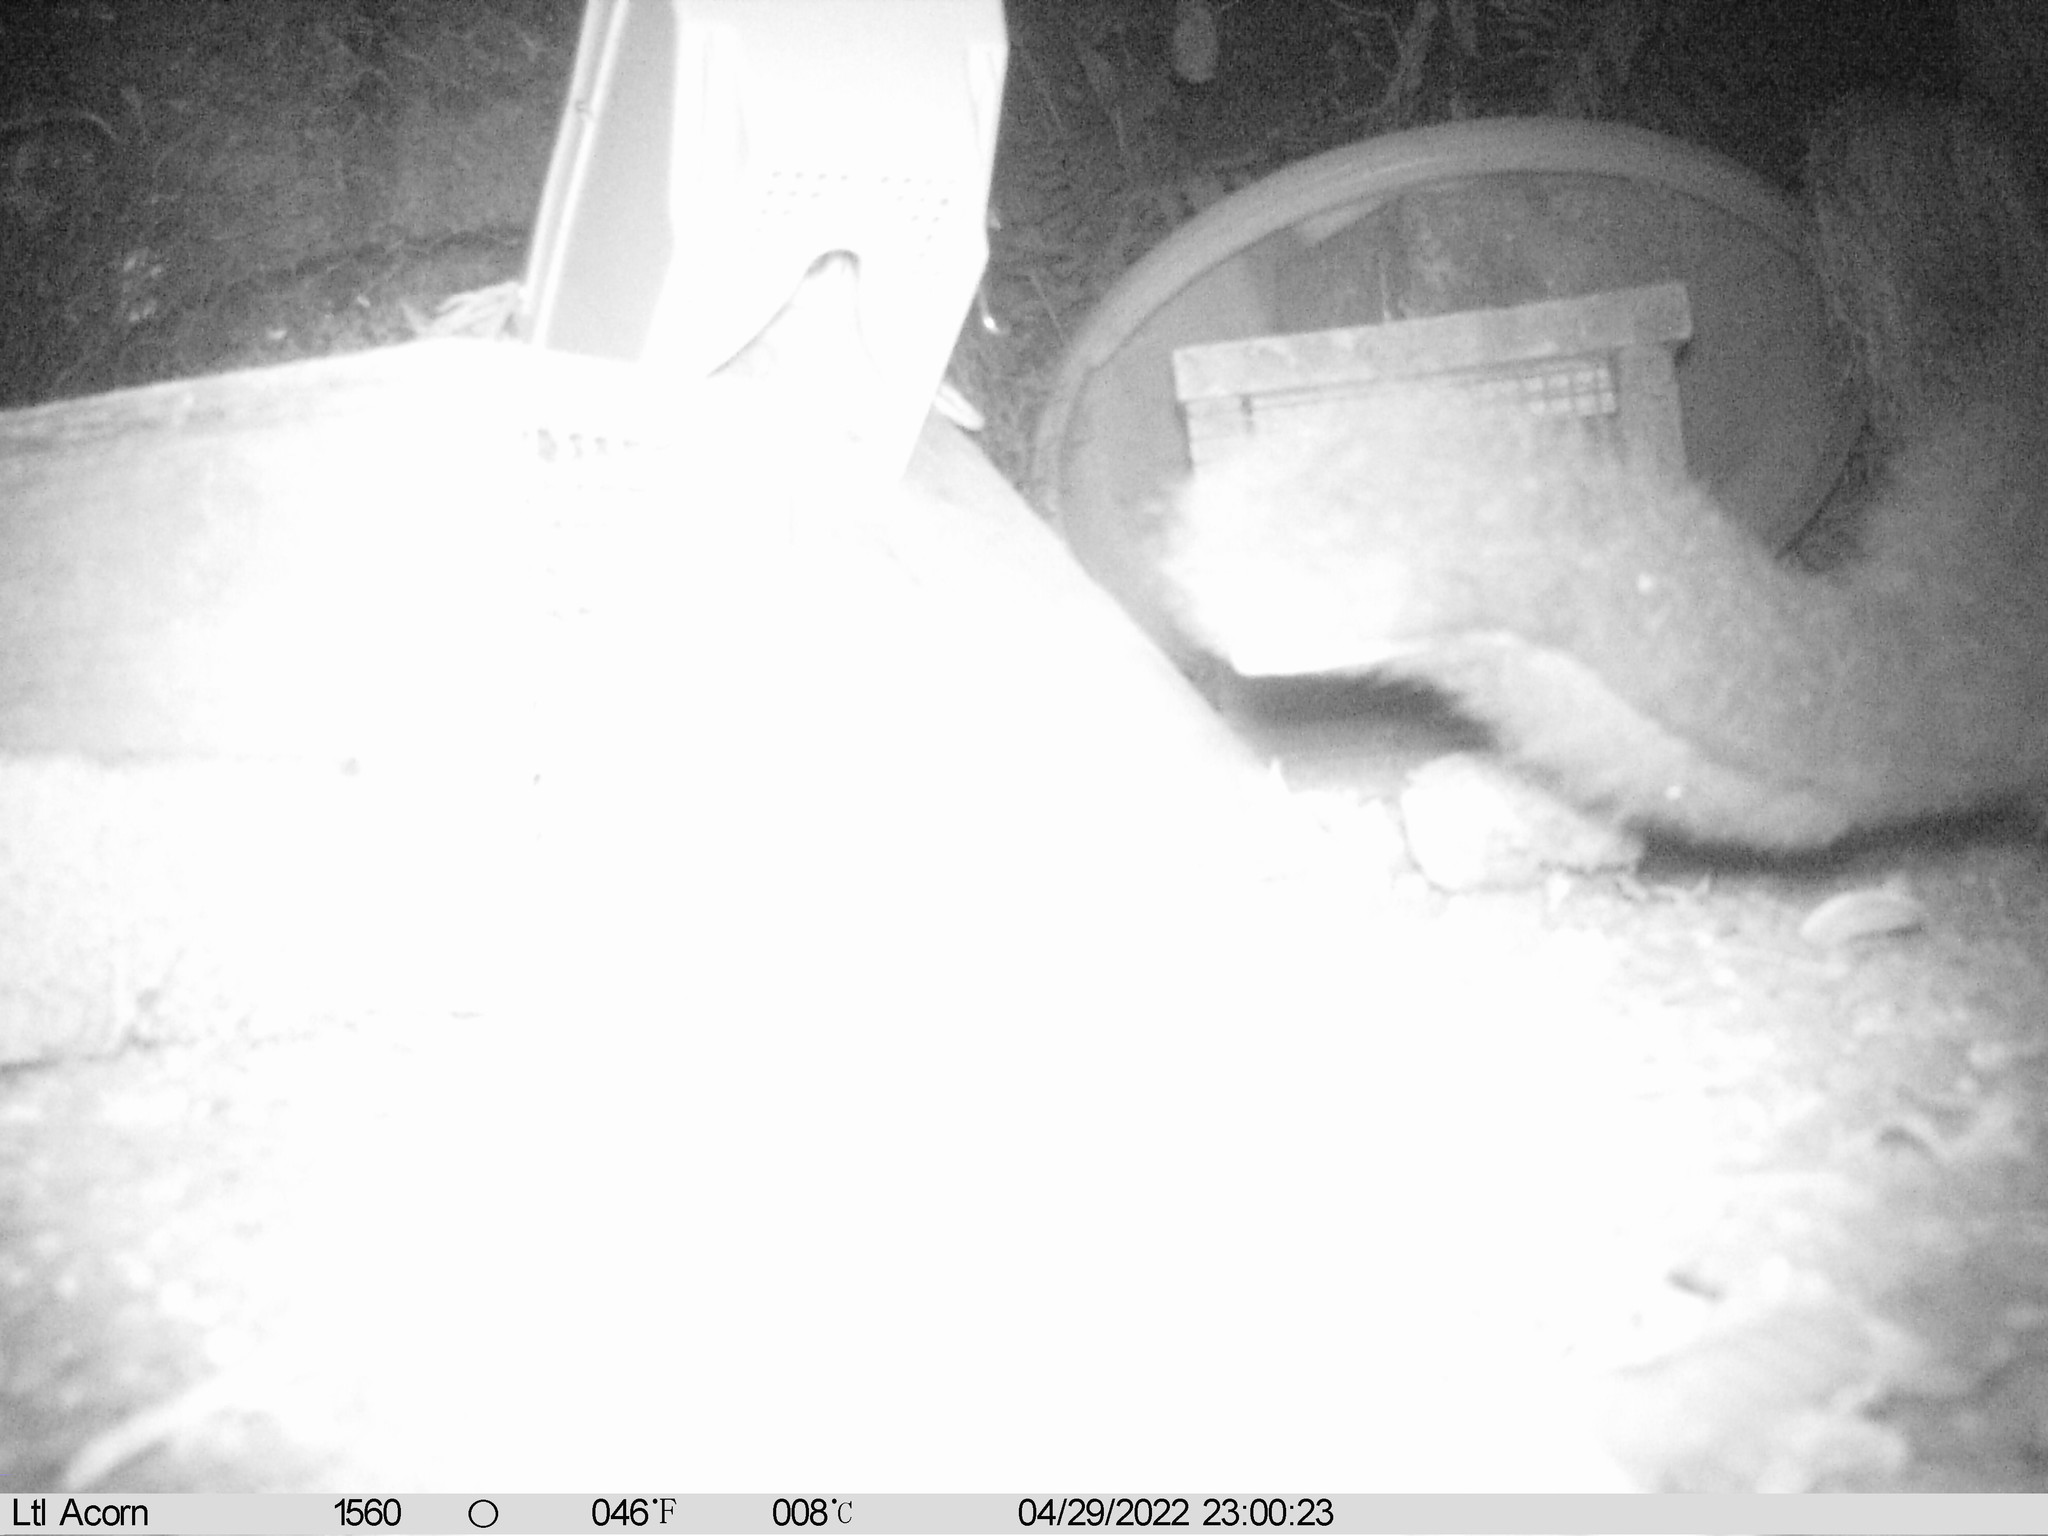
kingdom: Animalia
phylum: Chordata
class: Mammalia
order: Diprotodontia
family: Phalangeridae
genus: Trichosurus
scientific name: Trichosurus vulpecula
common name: Common brushtail
